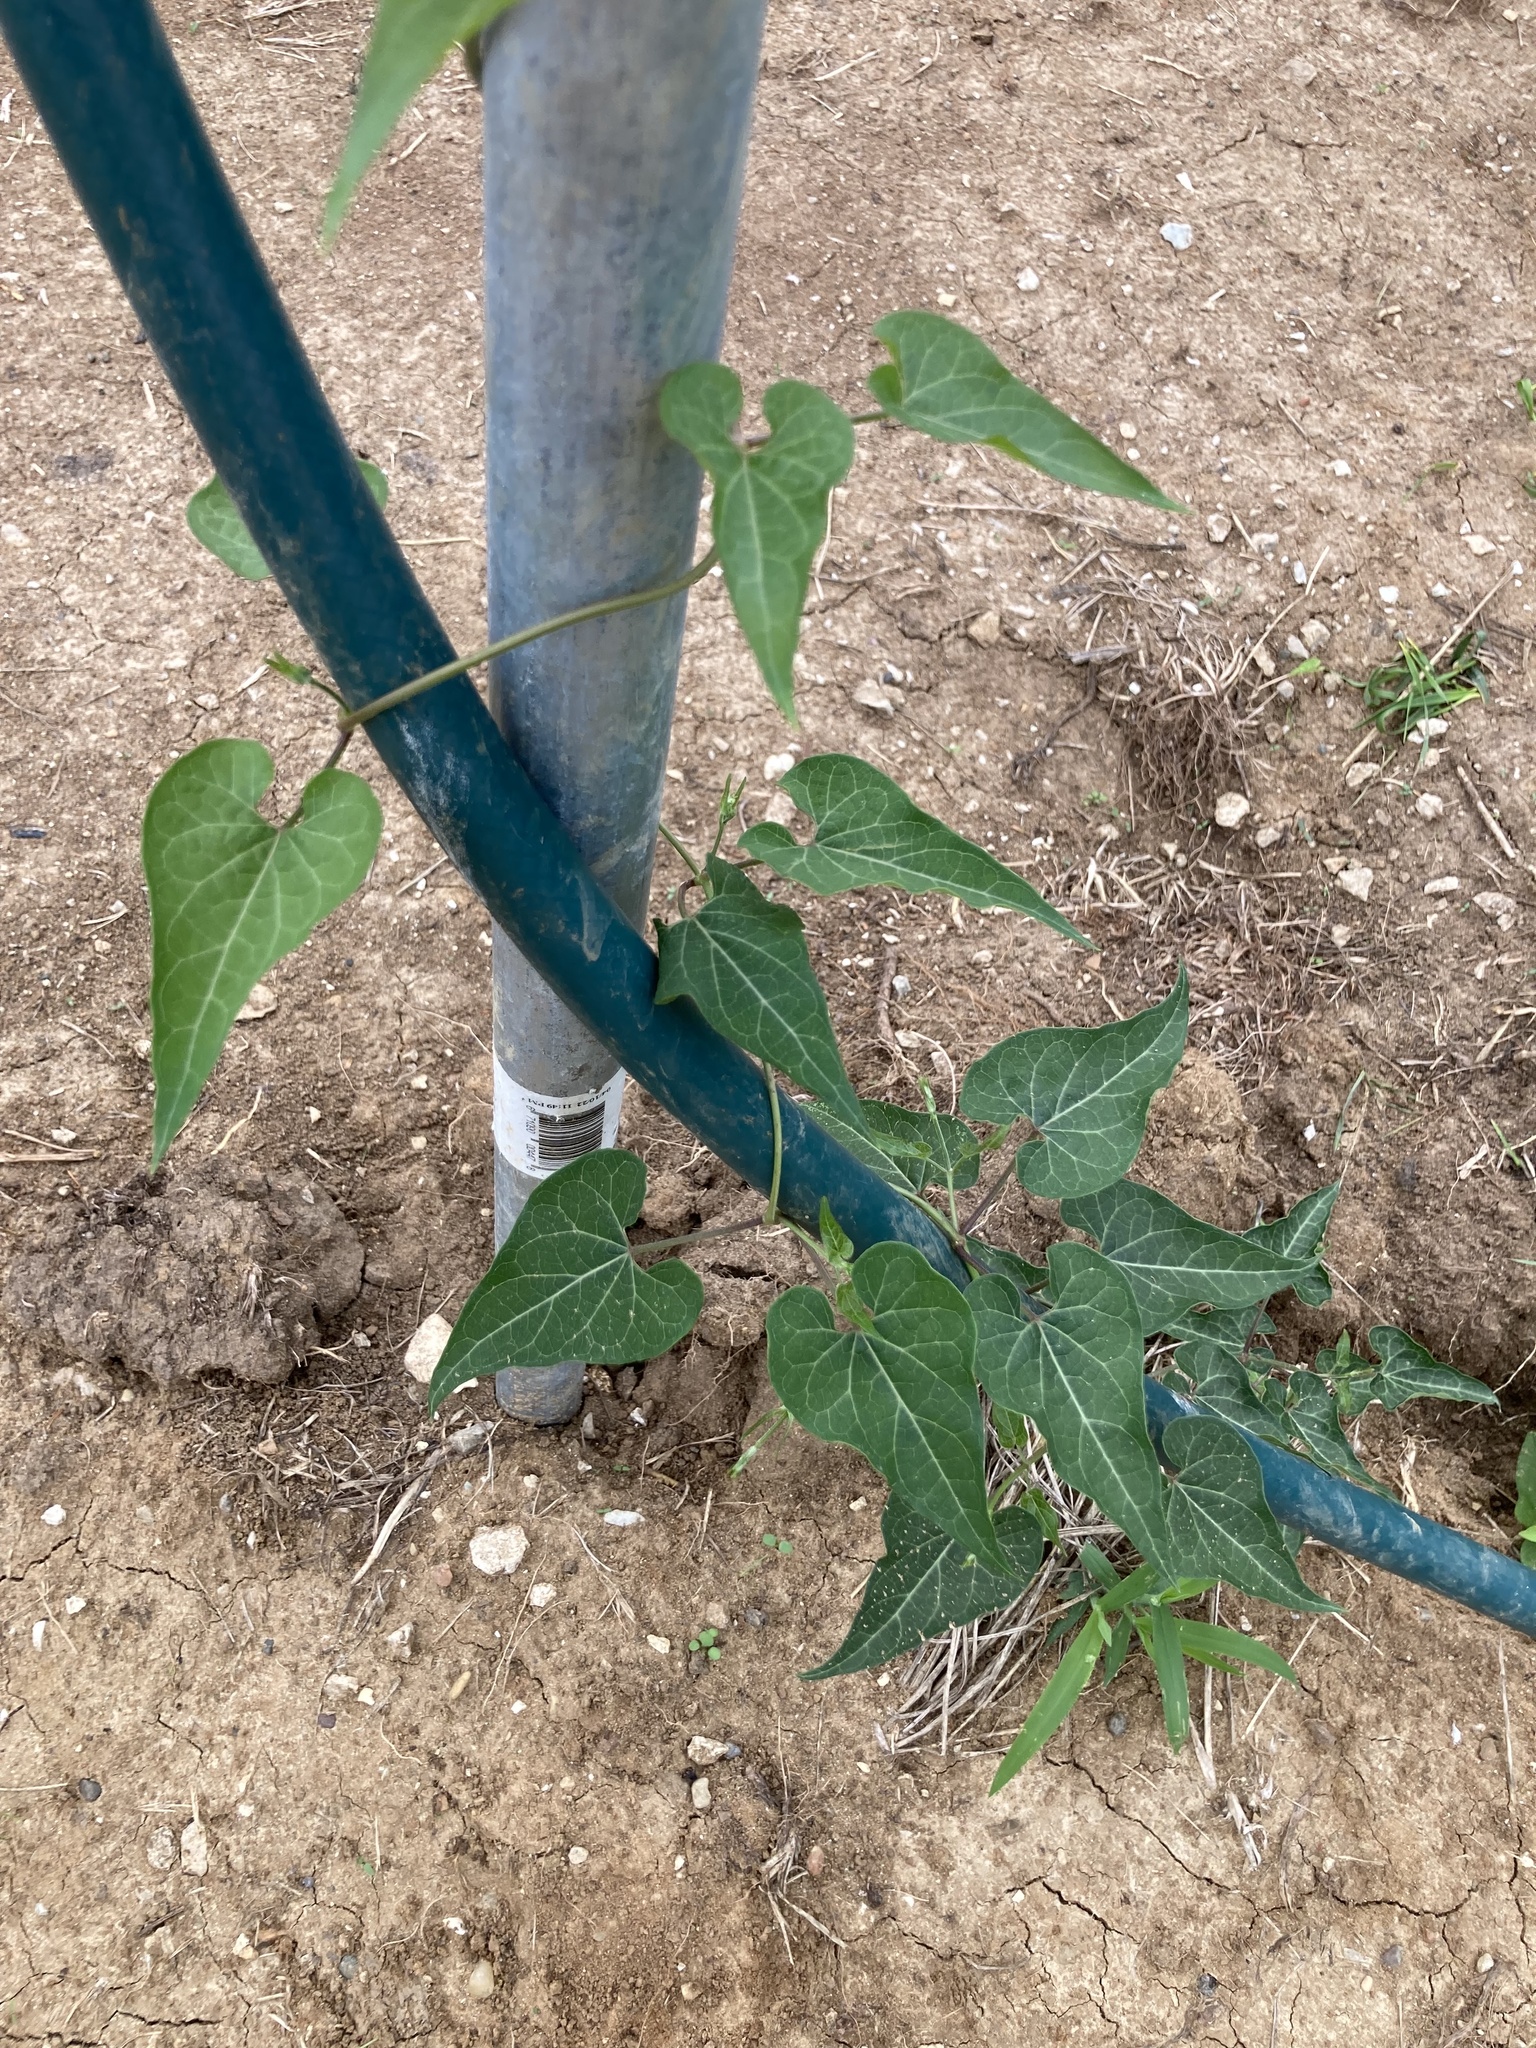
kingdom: Plantae
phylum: Tracheophyta
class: Magnoliopsida
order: Gentianales
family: Apocynaceae
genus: Cynanchum
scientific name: Cynanchum laeve
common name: Sandvine
